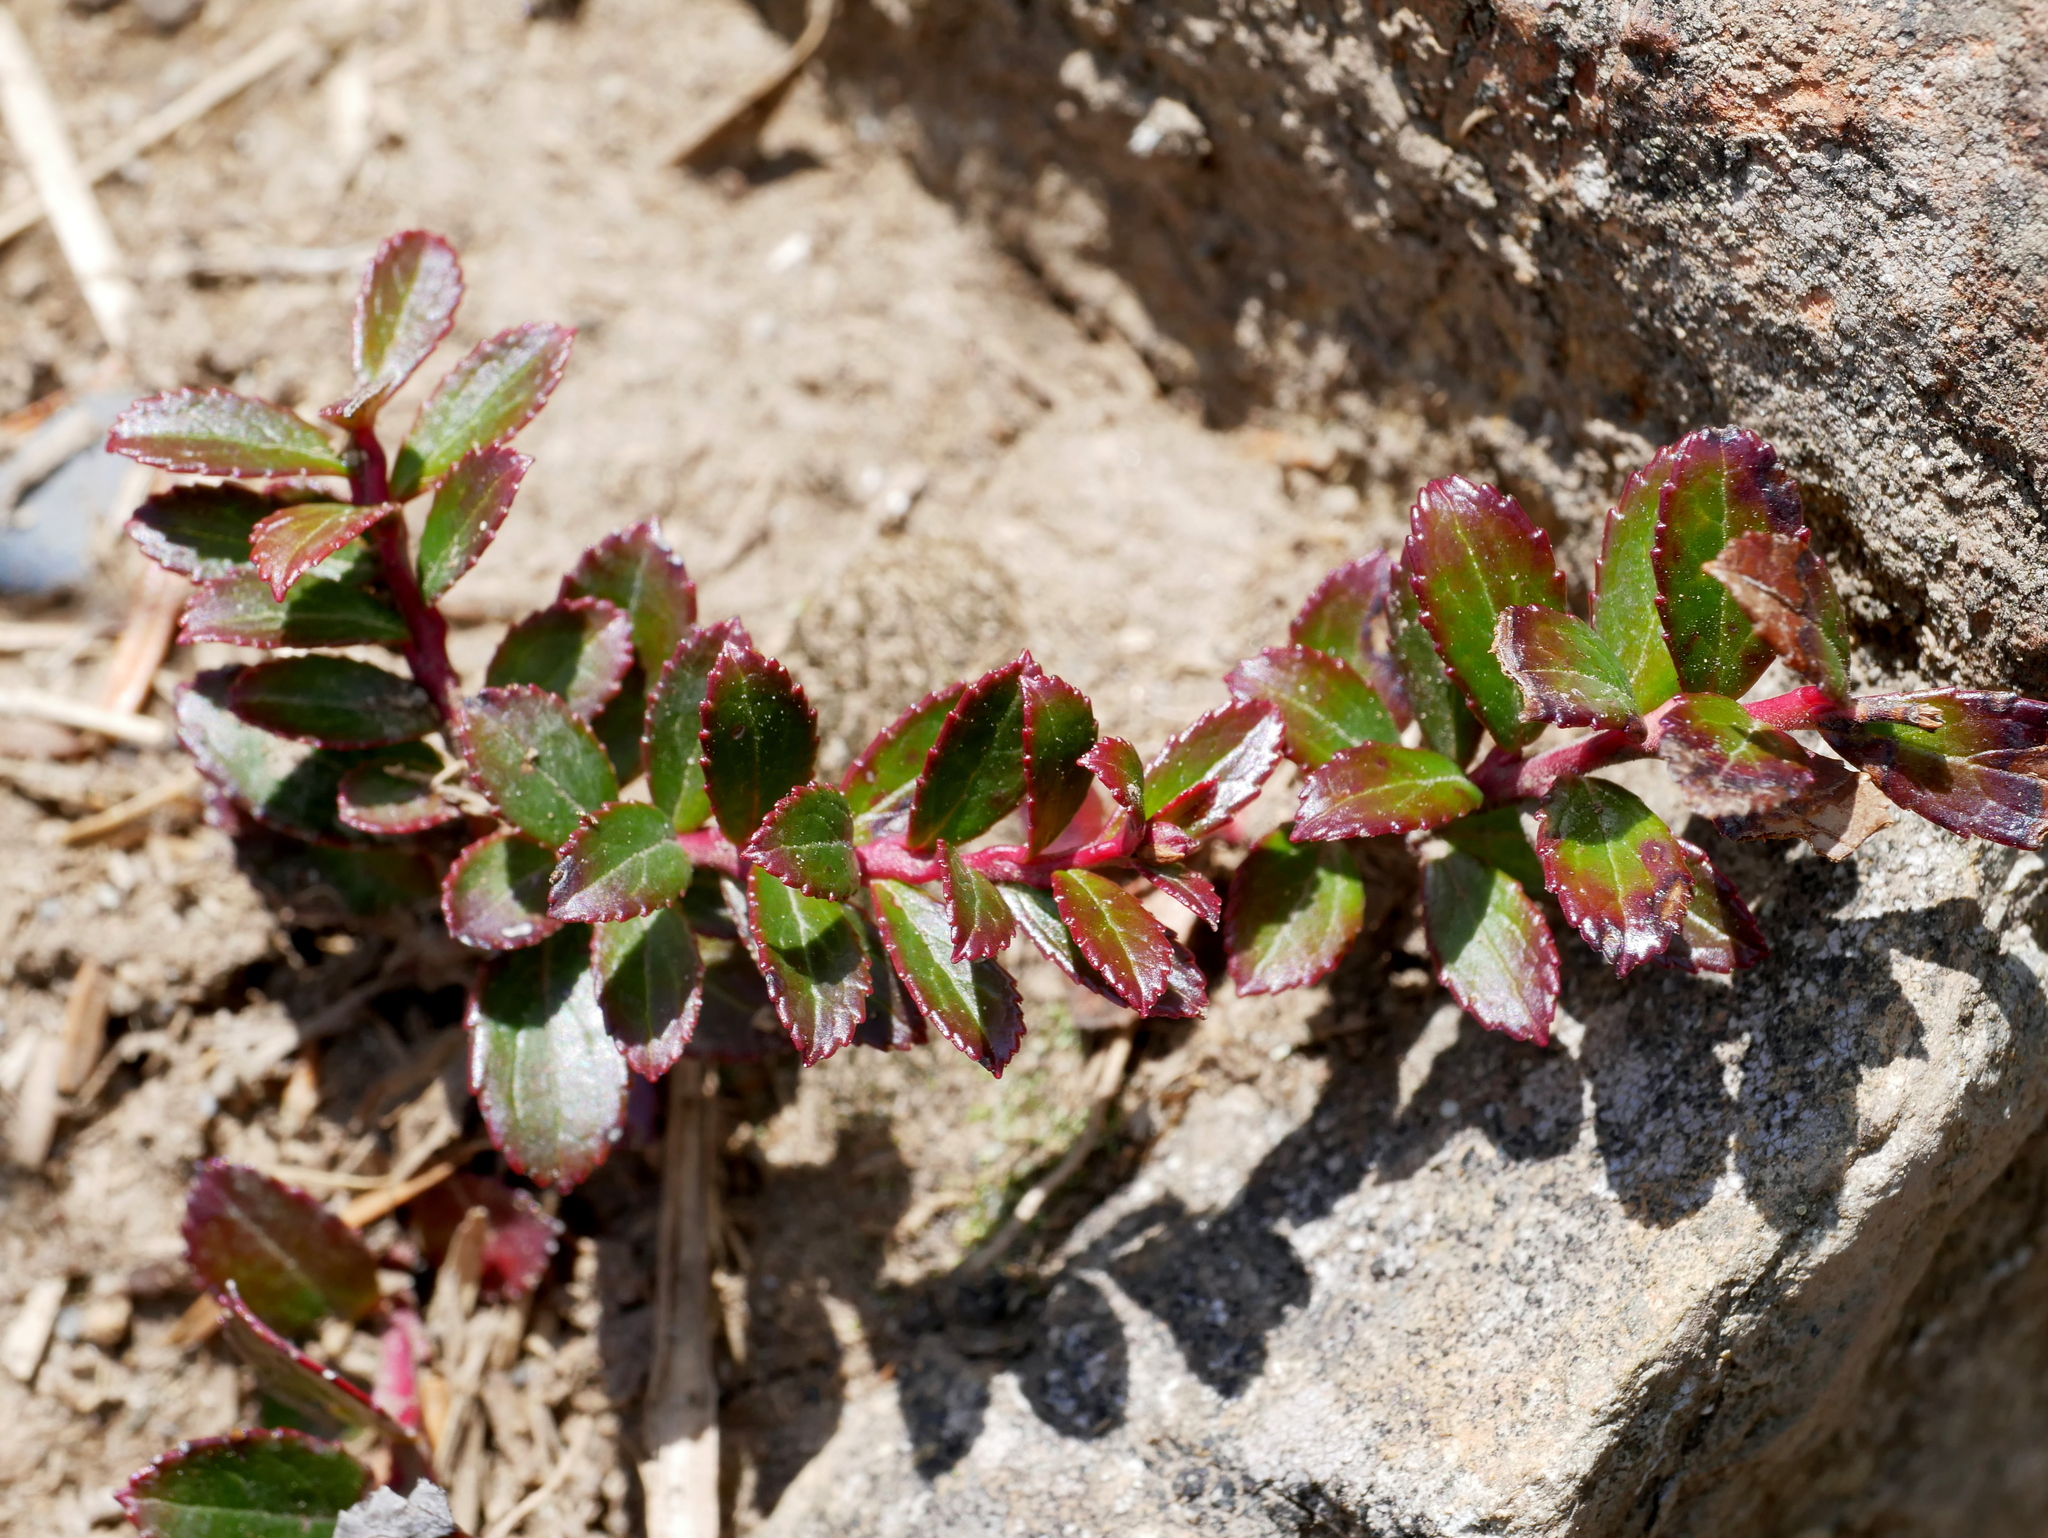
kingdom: Plantae
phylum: Tracheophyta
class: Magnoliopsida
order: Ericales
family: Ericaceae
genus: Gaultheria
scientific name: Gaultheria borneensis
